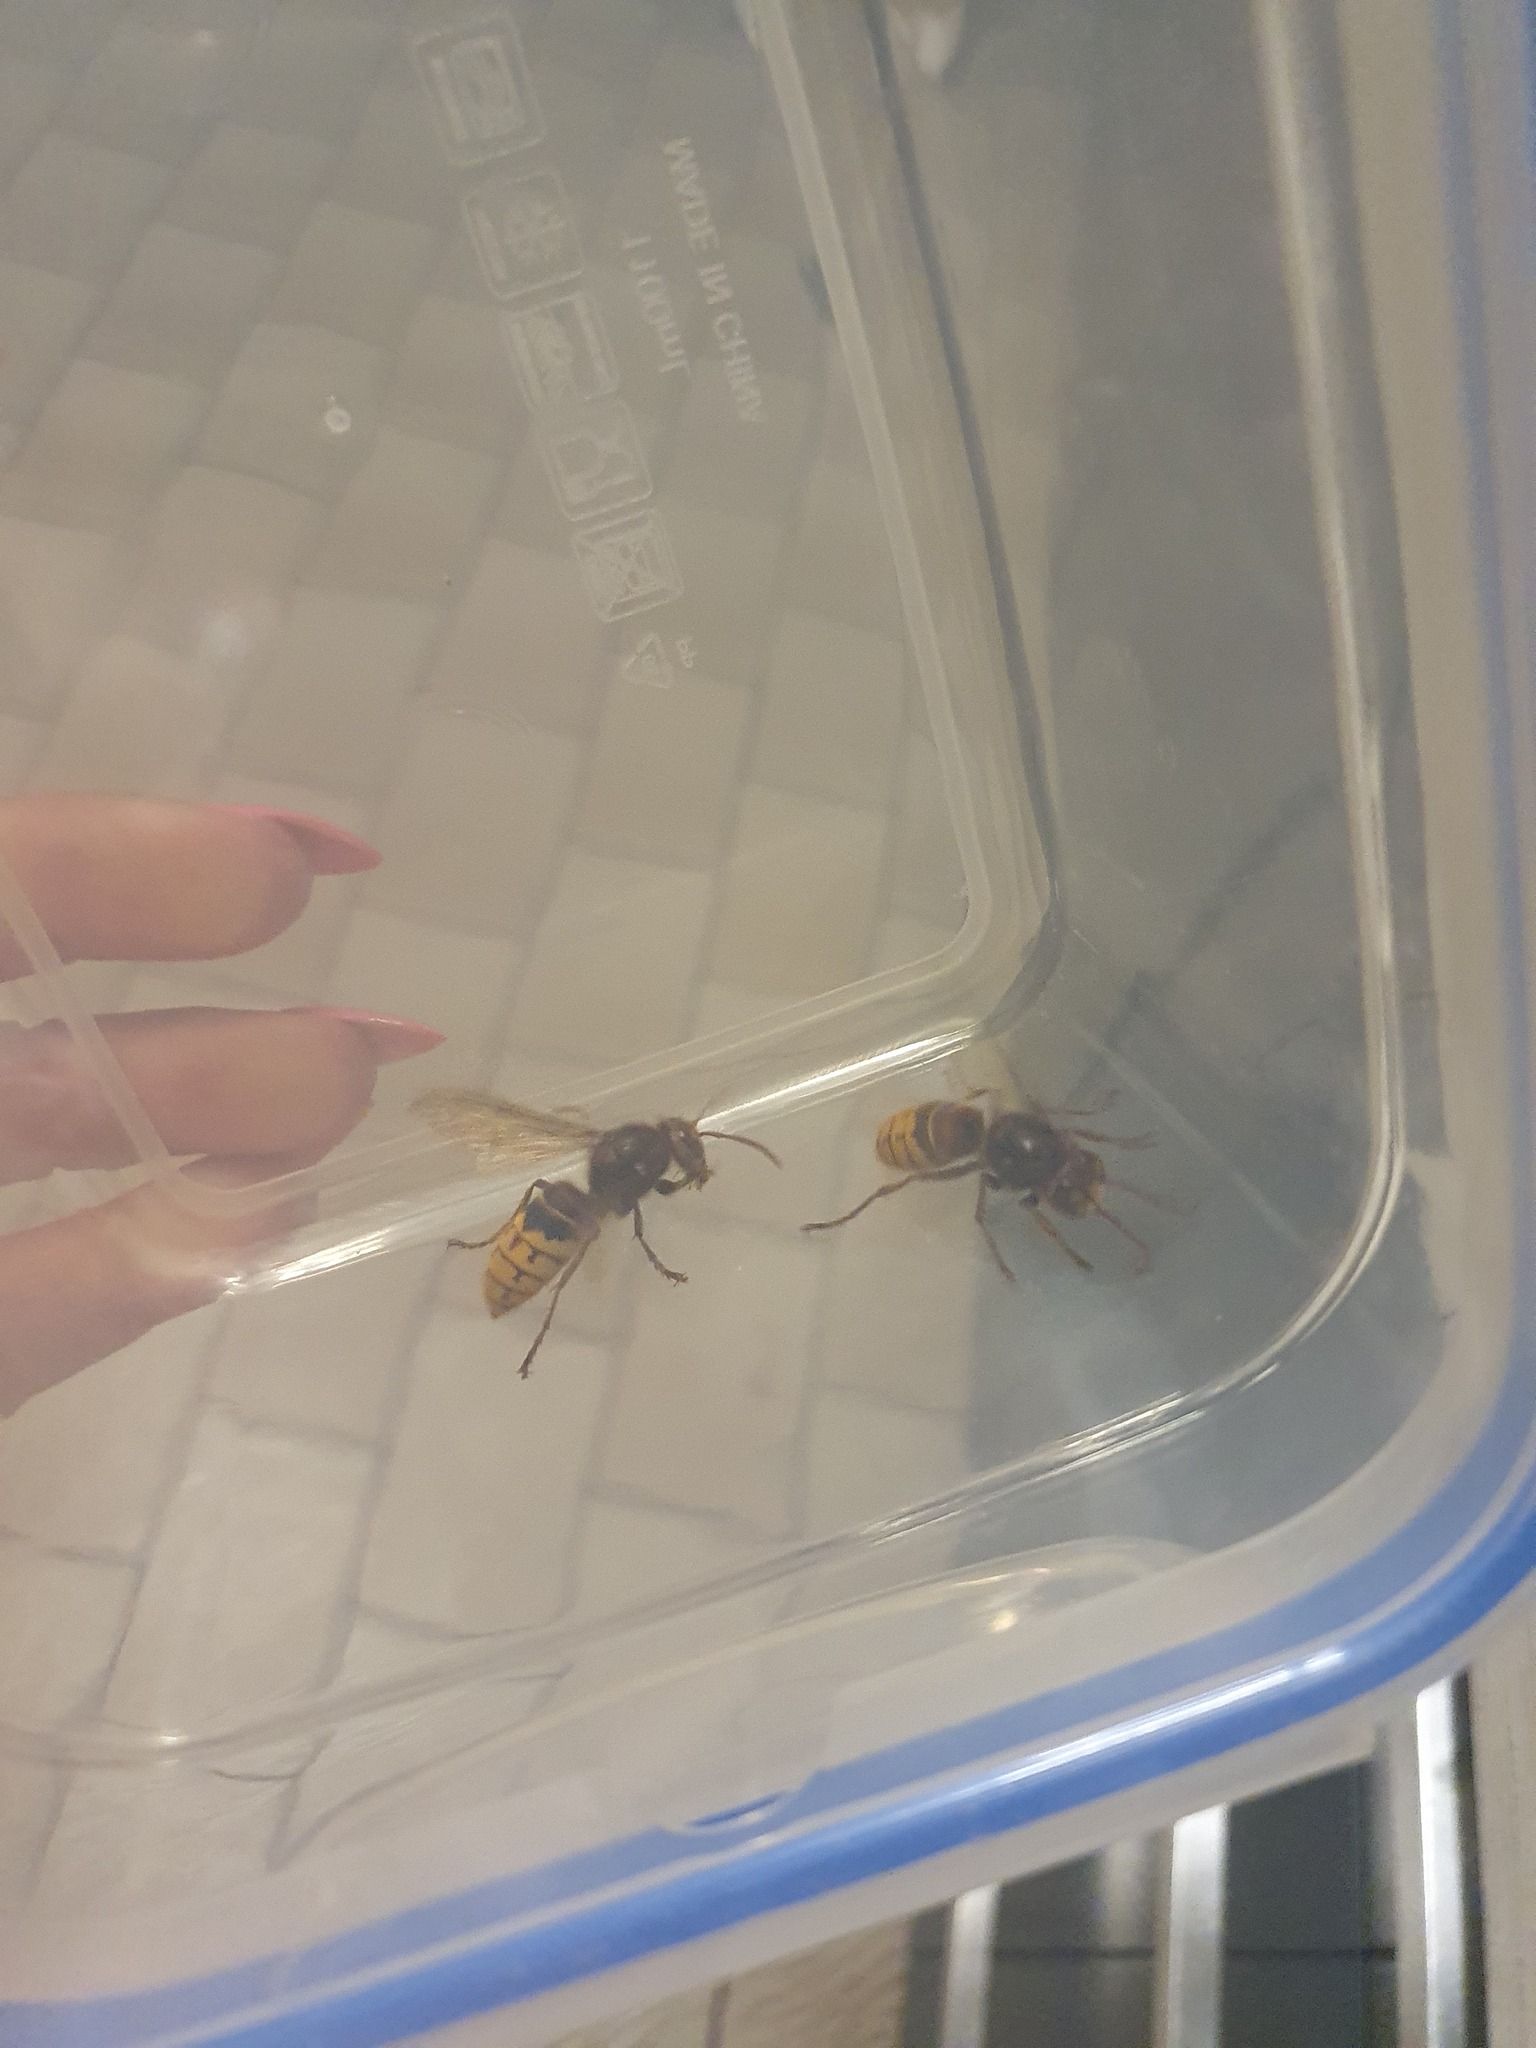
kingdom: Animalia
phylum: Arthropoda
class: Insecta
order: Hymenoptera
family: Vespidae
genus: Vespa
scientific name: Vespa crabro
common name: Hornet
